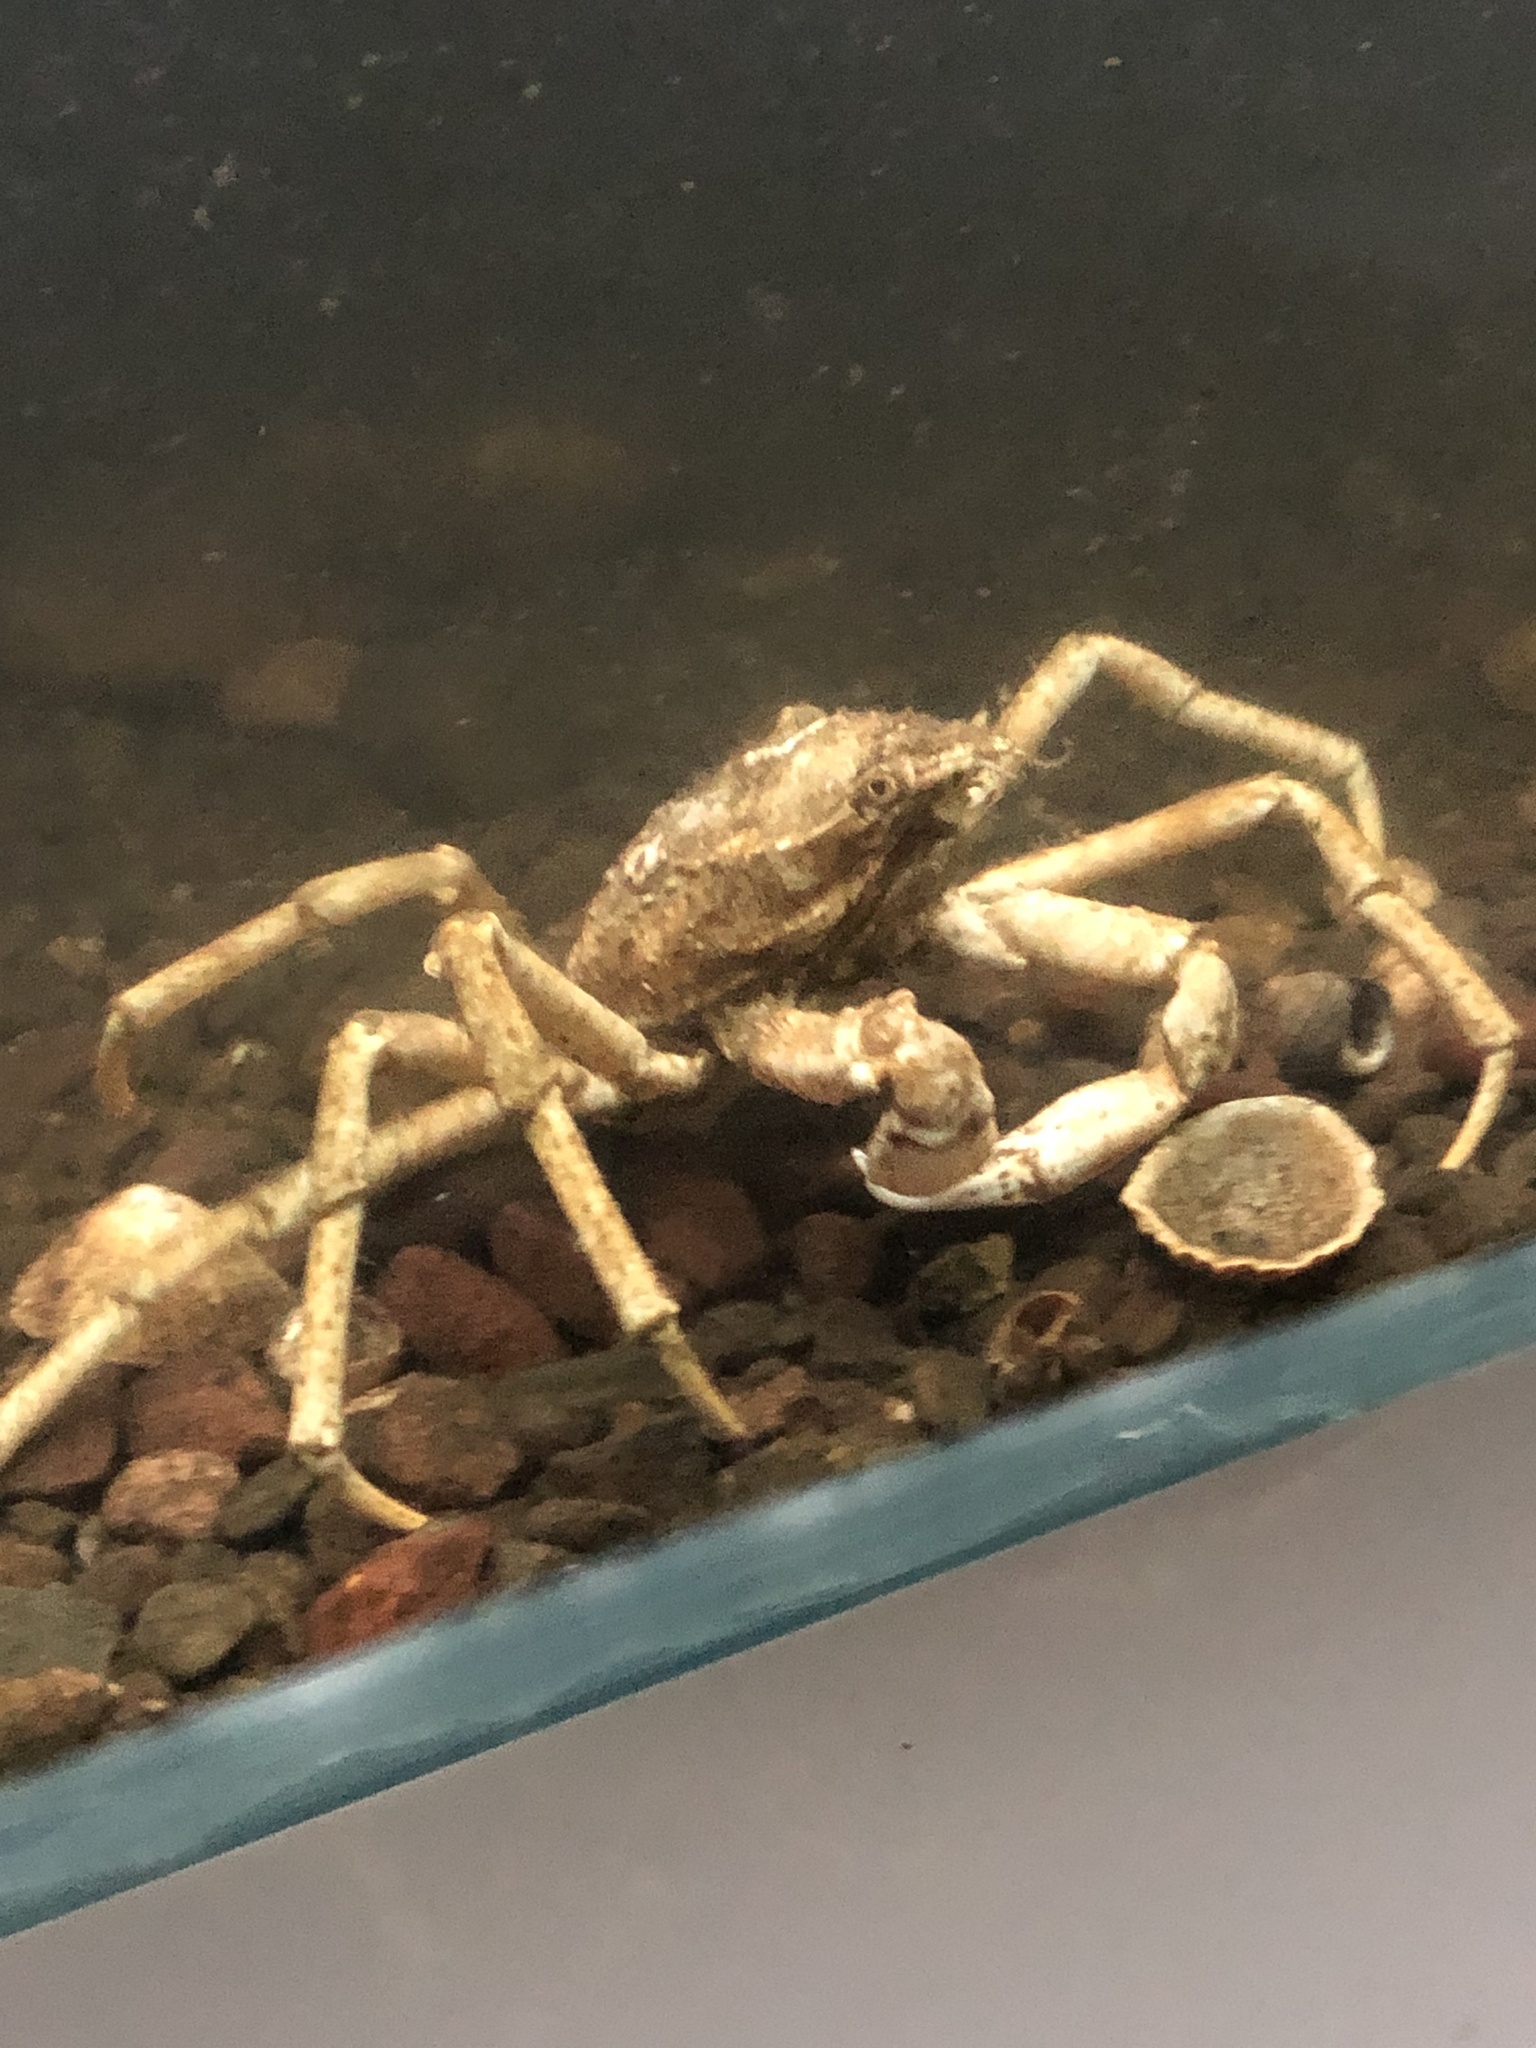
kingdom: Animalia
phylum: Arthropoda
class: Malacostraca
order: Decapoda
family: Oregoniidae
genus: Hyas
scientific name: Hyas araneus
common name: Great spider crab
